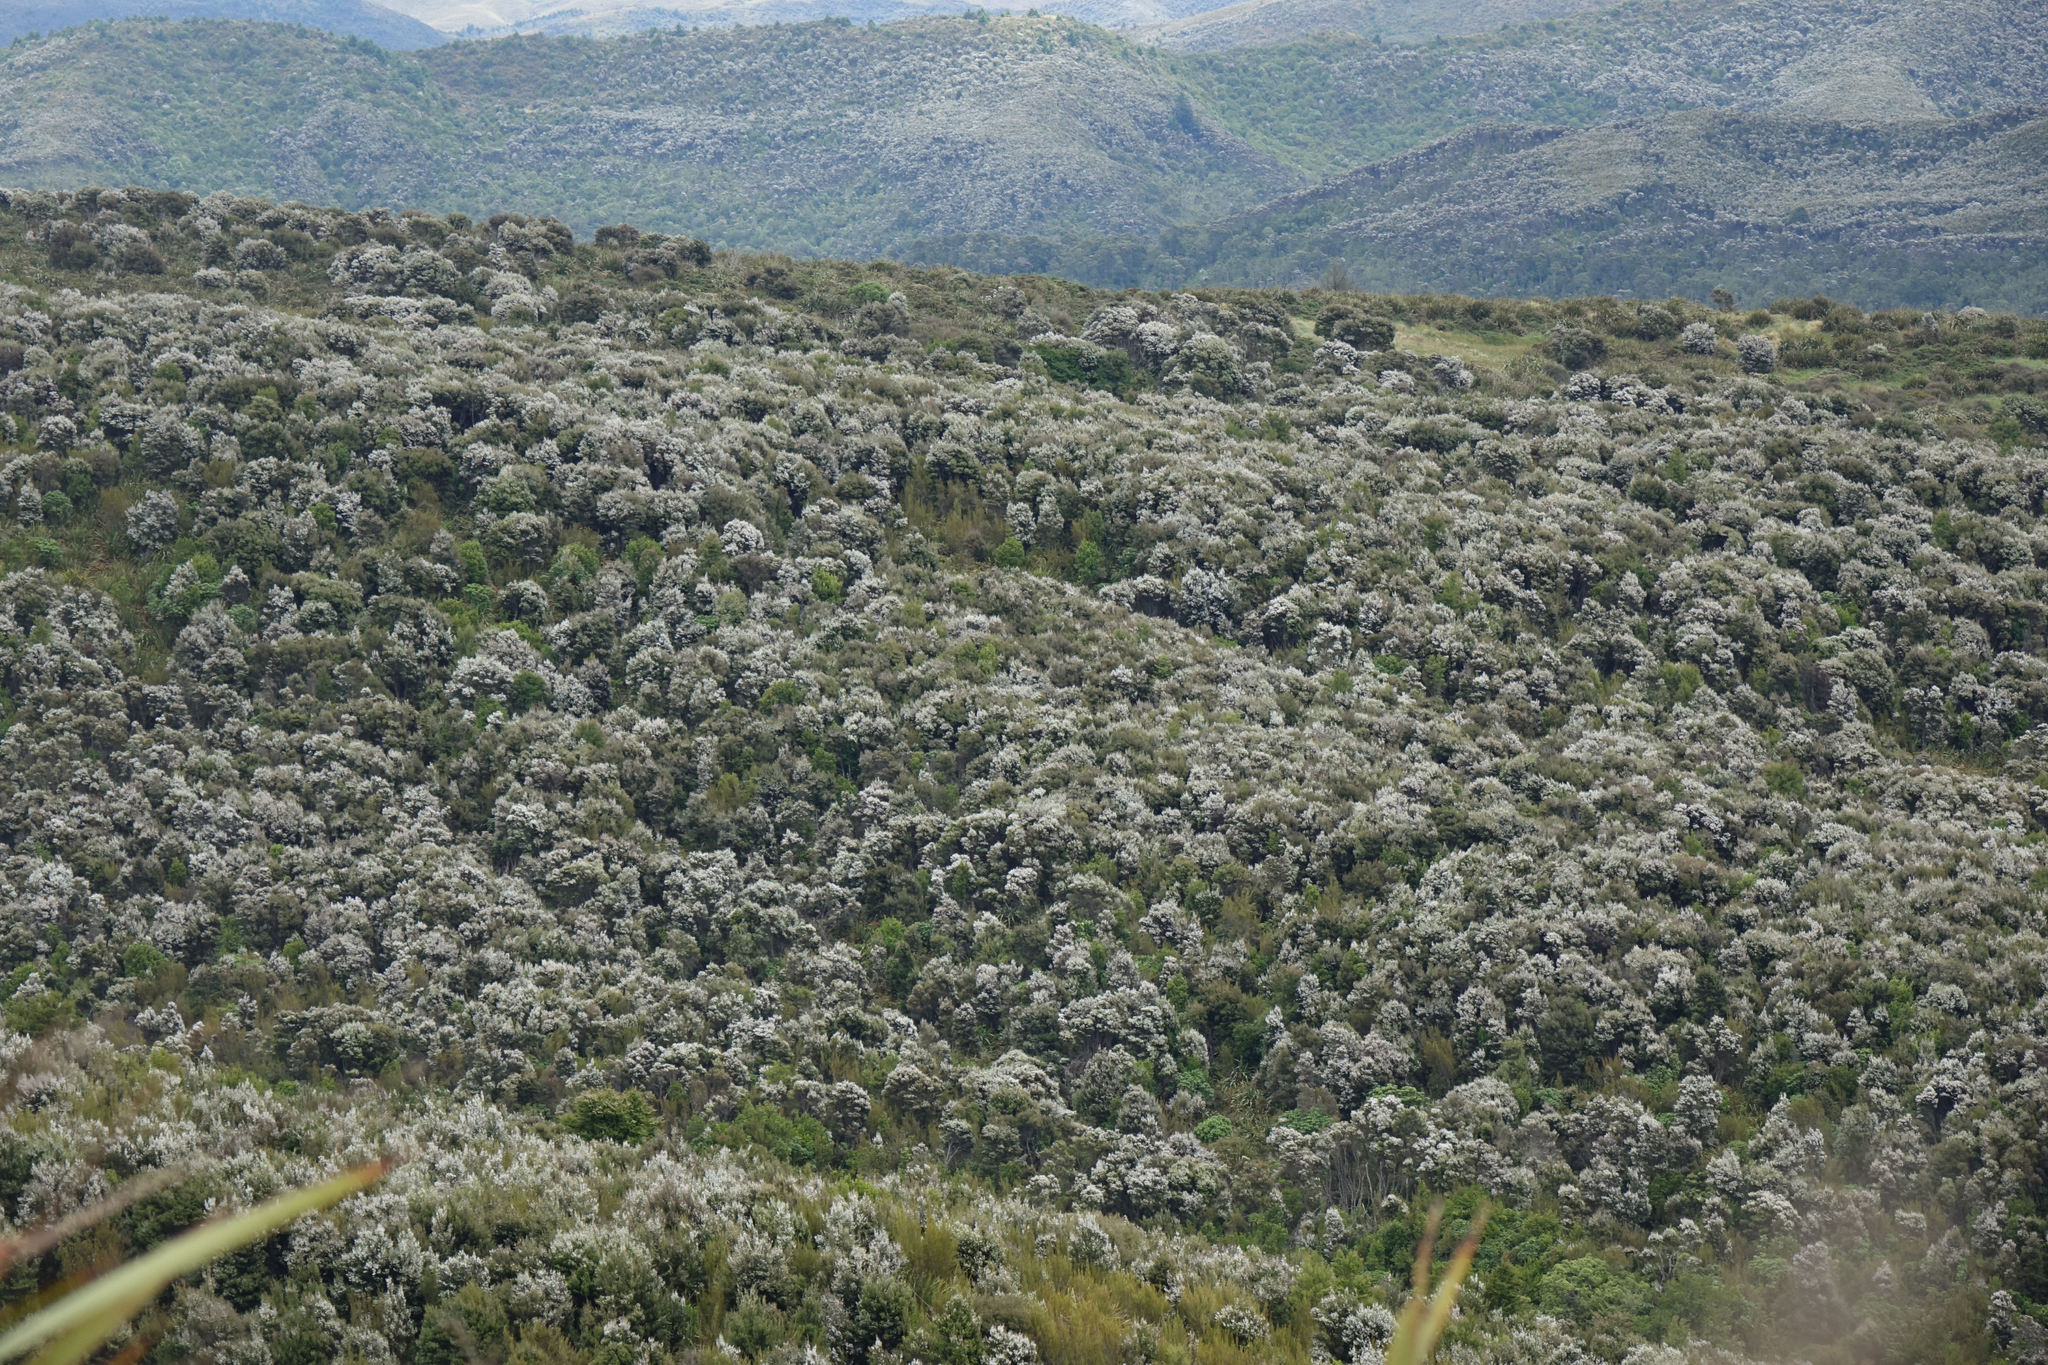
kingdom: Plantae
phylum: Tracheophyta
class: Magnoliopsida
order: Myrtales
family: Myrtaceae
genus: Leptospermum
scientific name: Leptospermum scoparium
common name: Broom tea-tree
